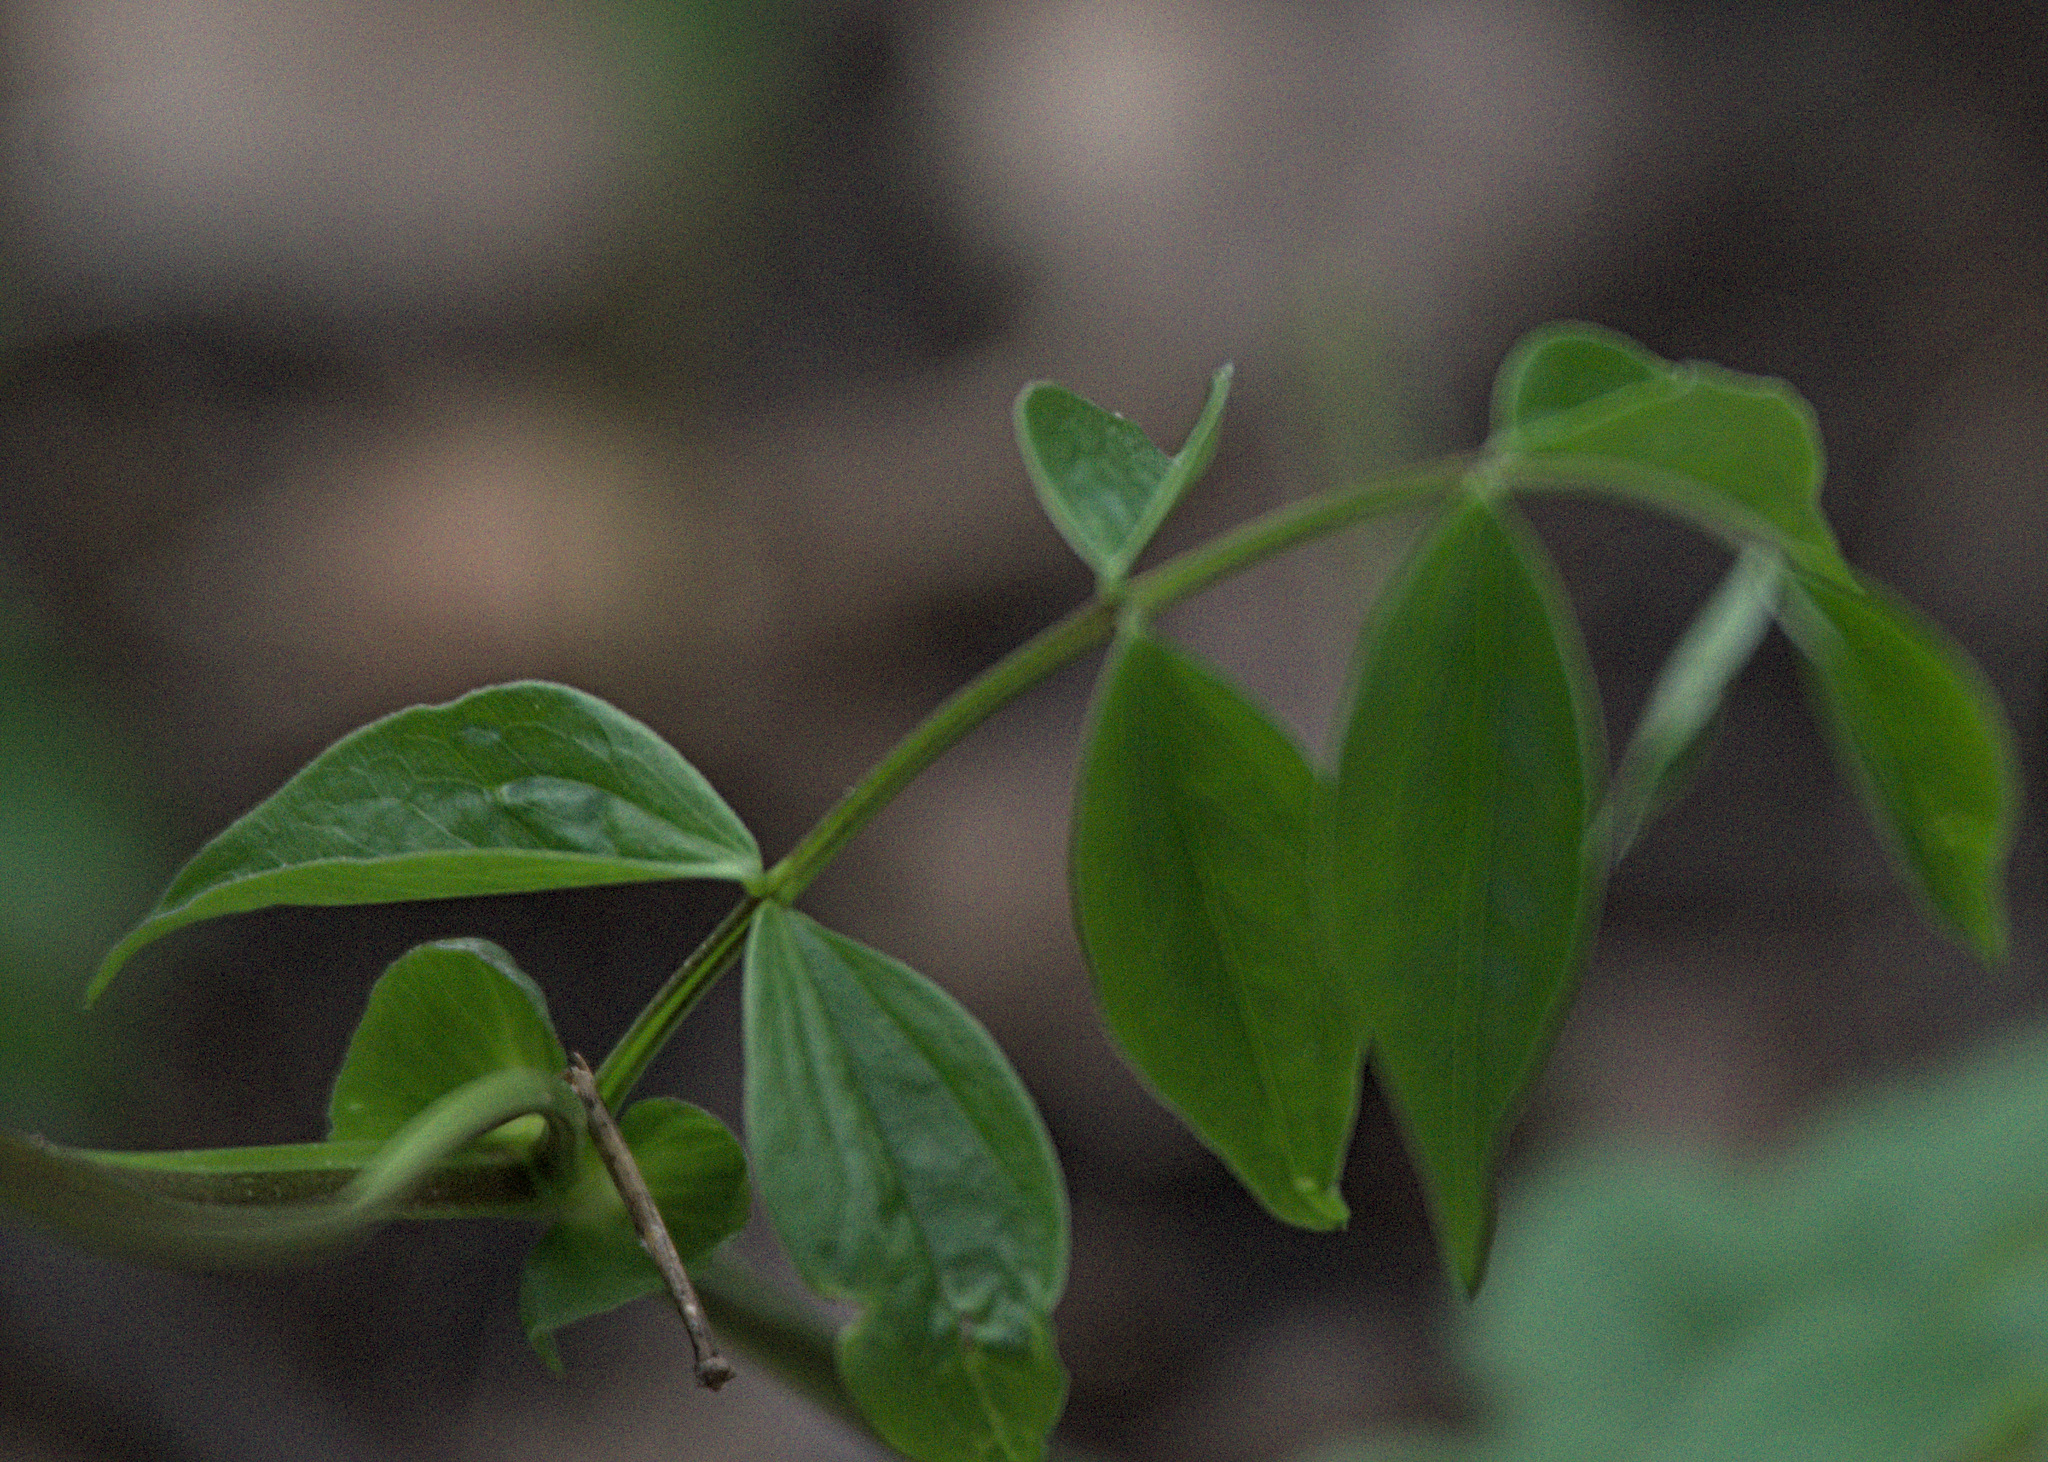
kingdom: Plantae
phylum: Tracheophyta
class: Magnoliopsida
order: Fabales
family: Fabaceae
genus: Lathyrus
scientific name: Lathyrus vernus
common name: Spring pea
